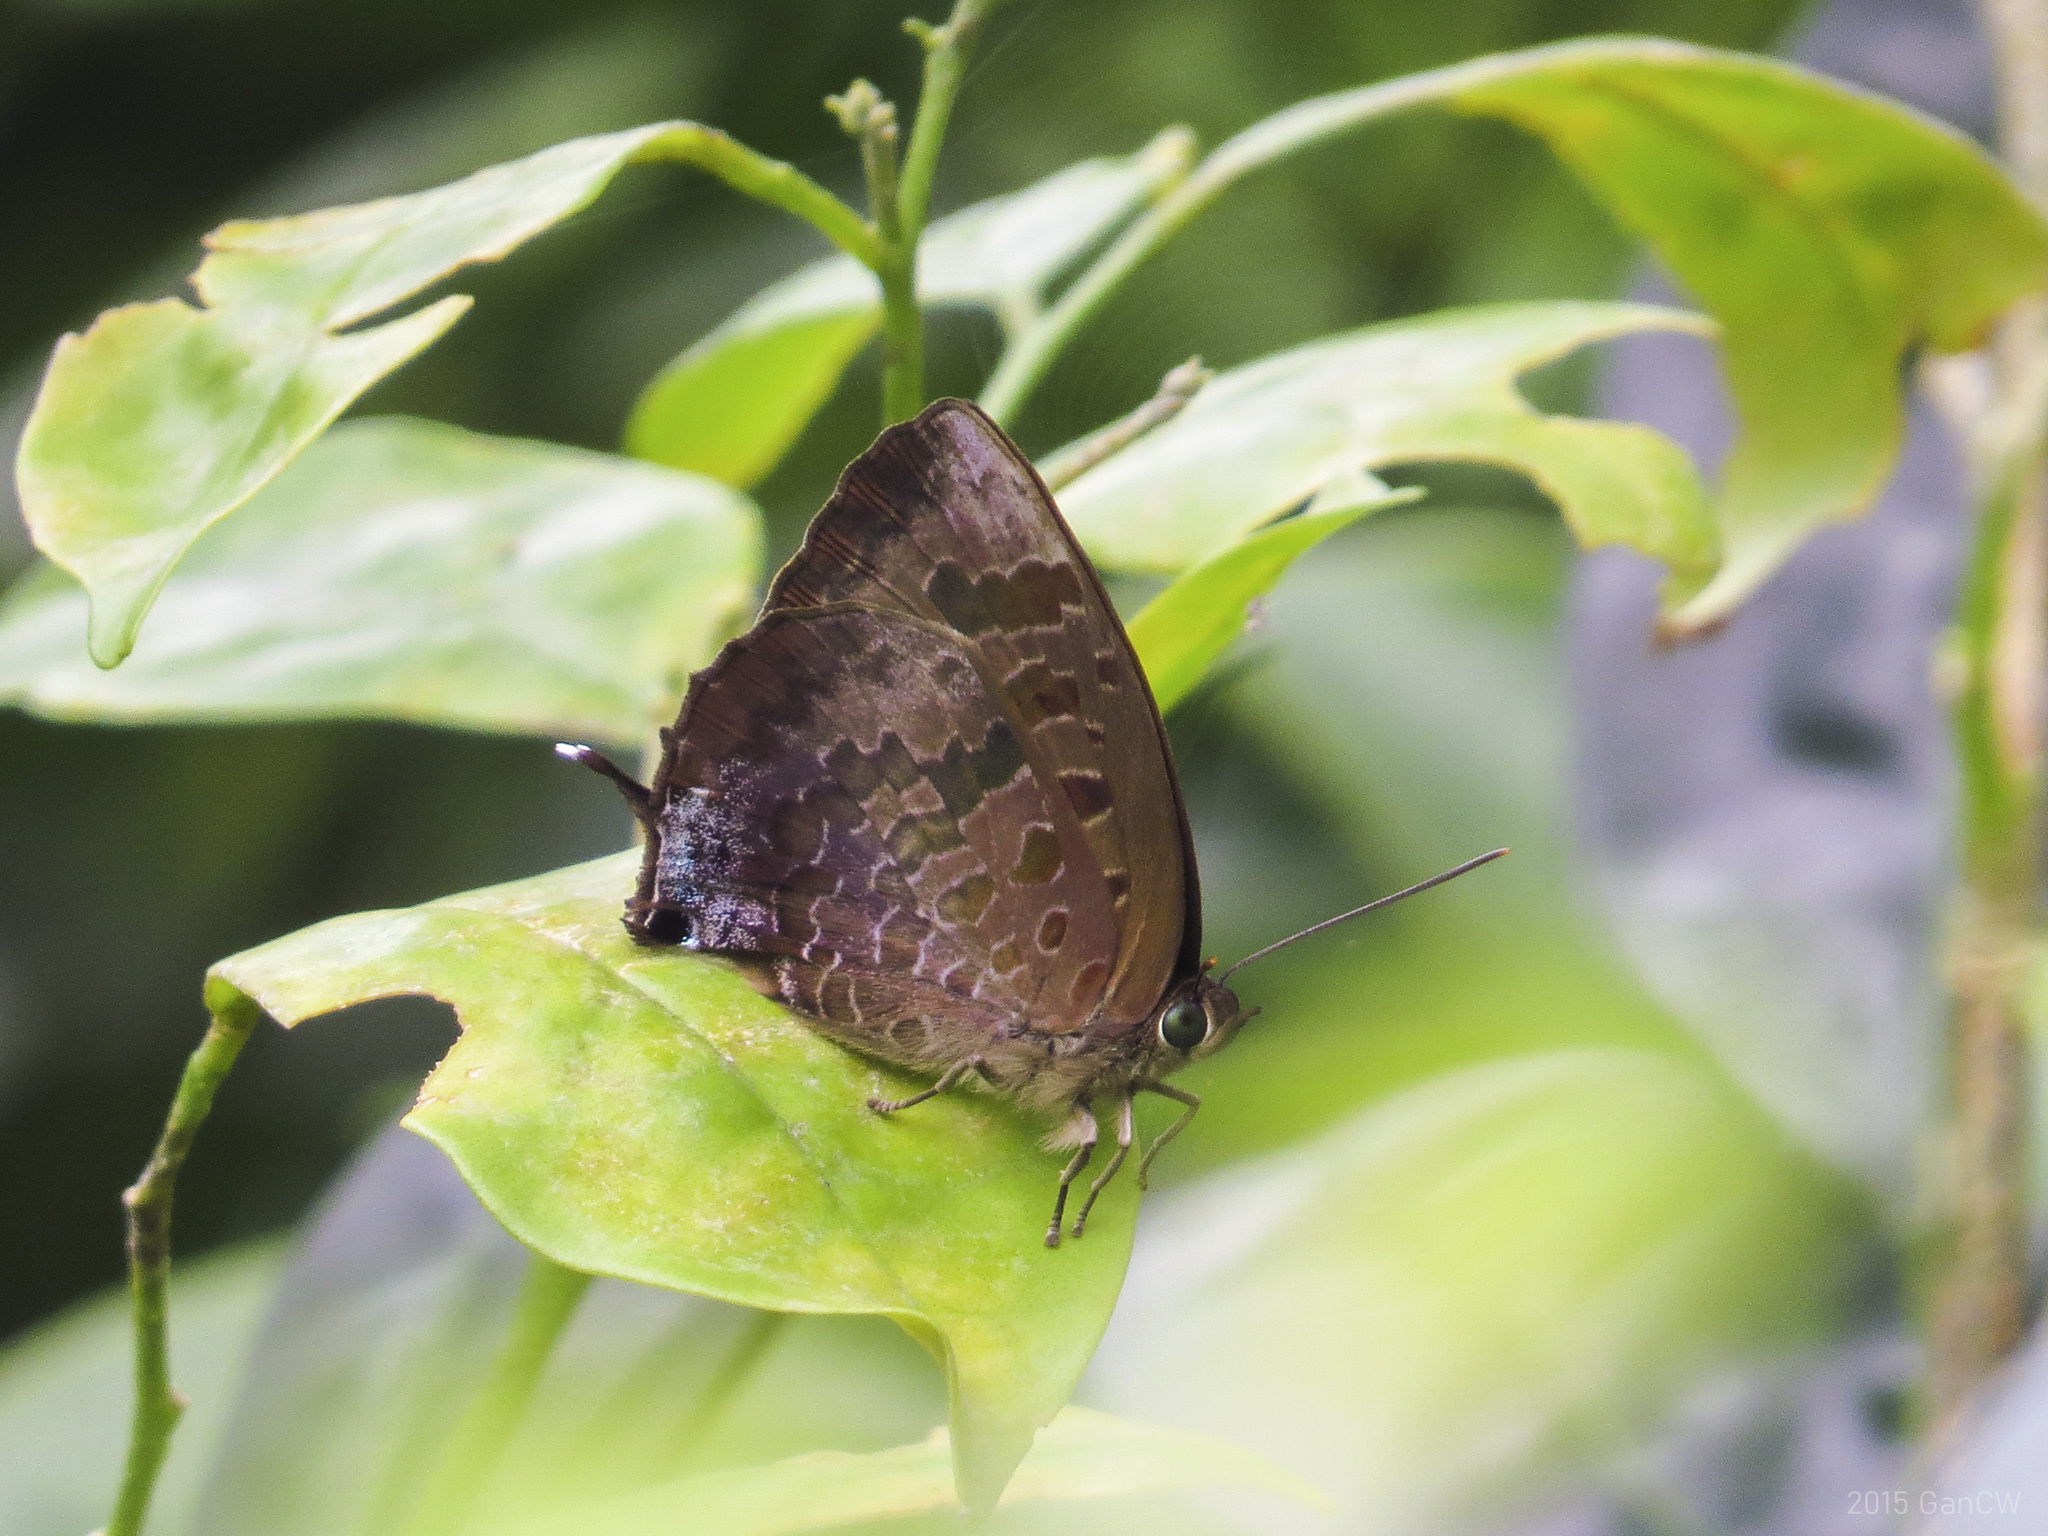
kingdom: Animalia
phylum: Arthropoda
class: Insecta
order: Lepidoptera
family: Lycaenidae
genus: Arhopala
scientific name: Arhopala bazalus
